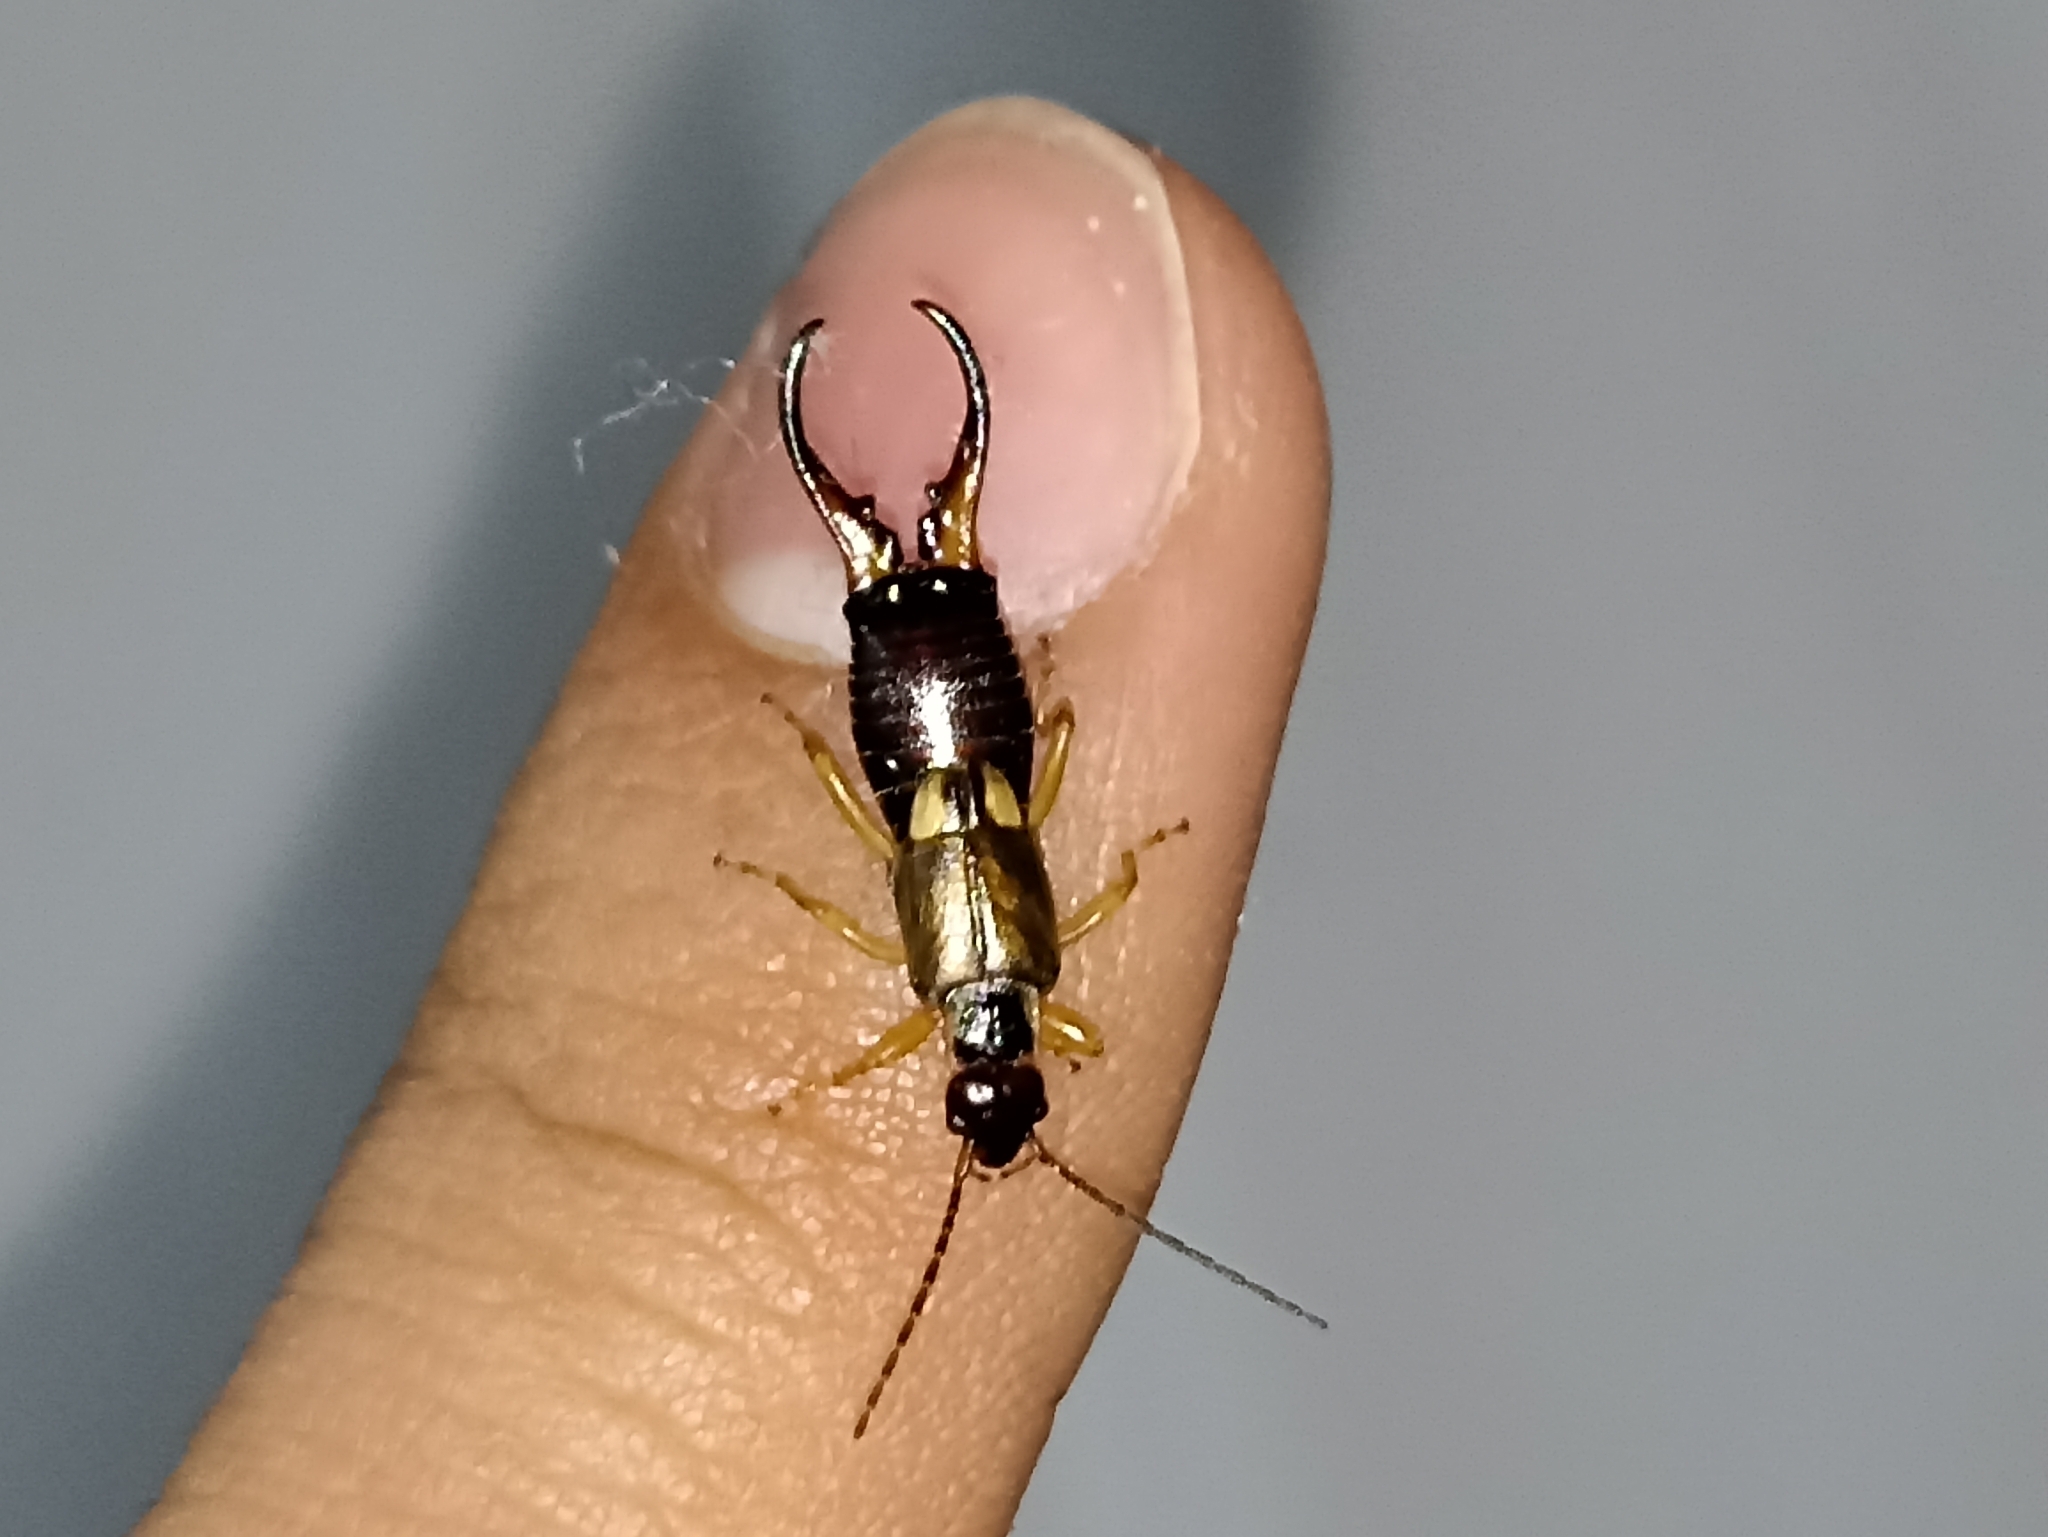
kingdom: Animalia
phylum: Arthropoda
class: Insecta
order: Dermaptera
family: Forficulidae
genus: Forficula
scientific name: Forficula
